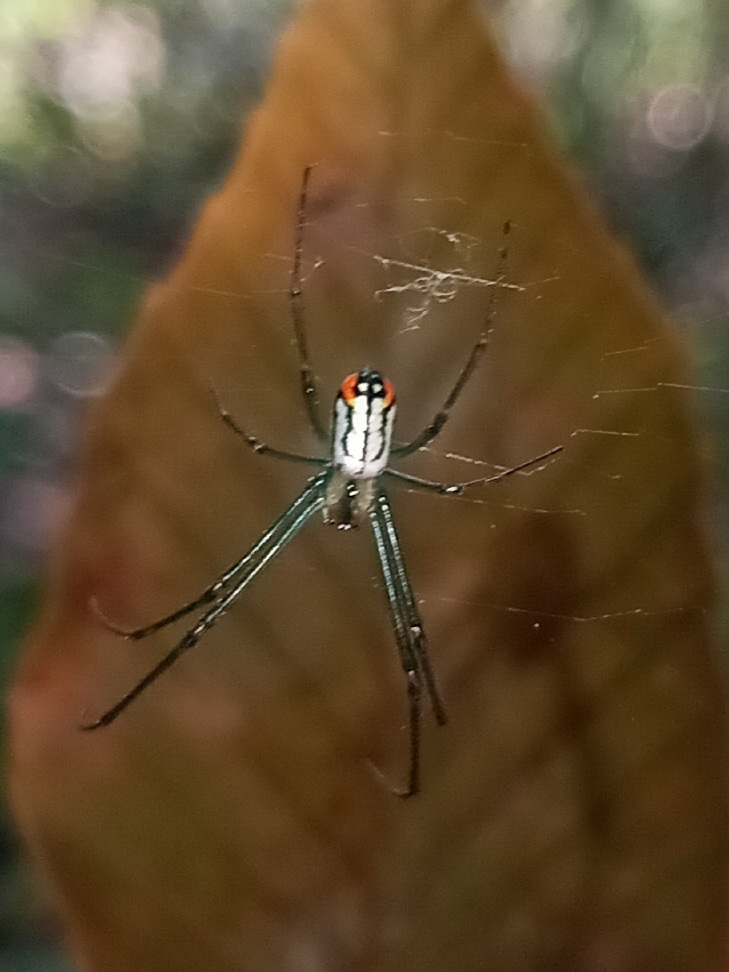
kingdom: Animalia
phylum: Arthropoda
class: Arachnida
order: Araneae
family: Tetragnathidae
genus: Leucauge
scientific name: Leucauge argyrobapta
